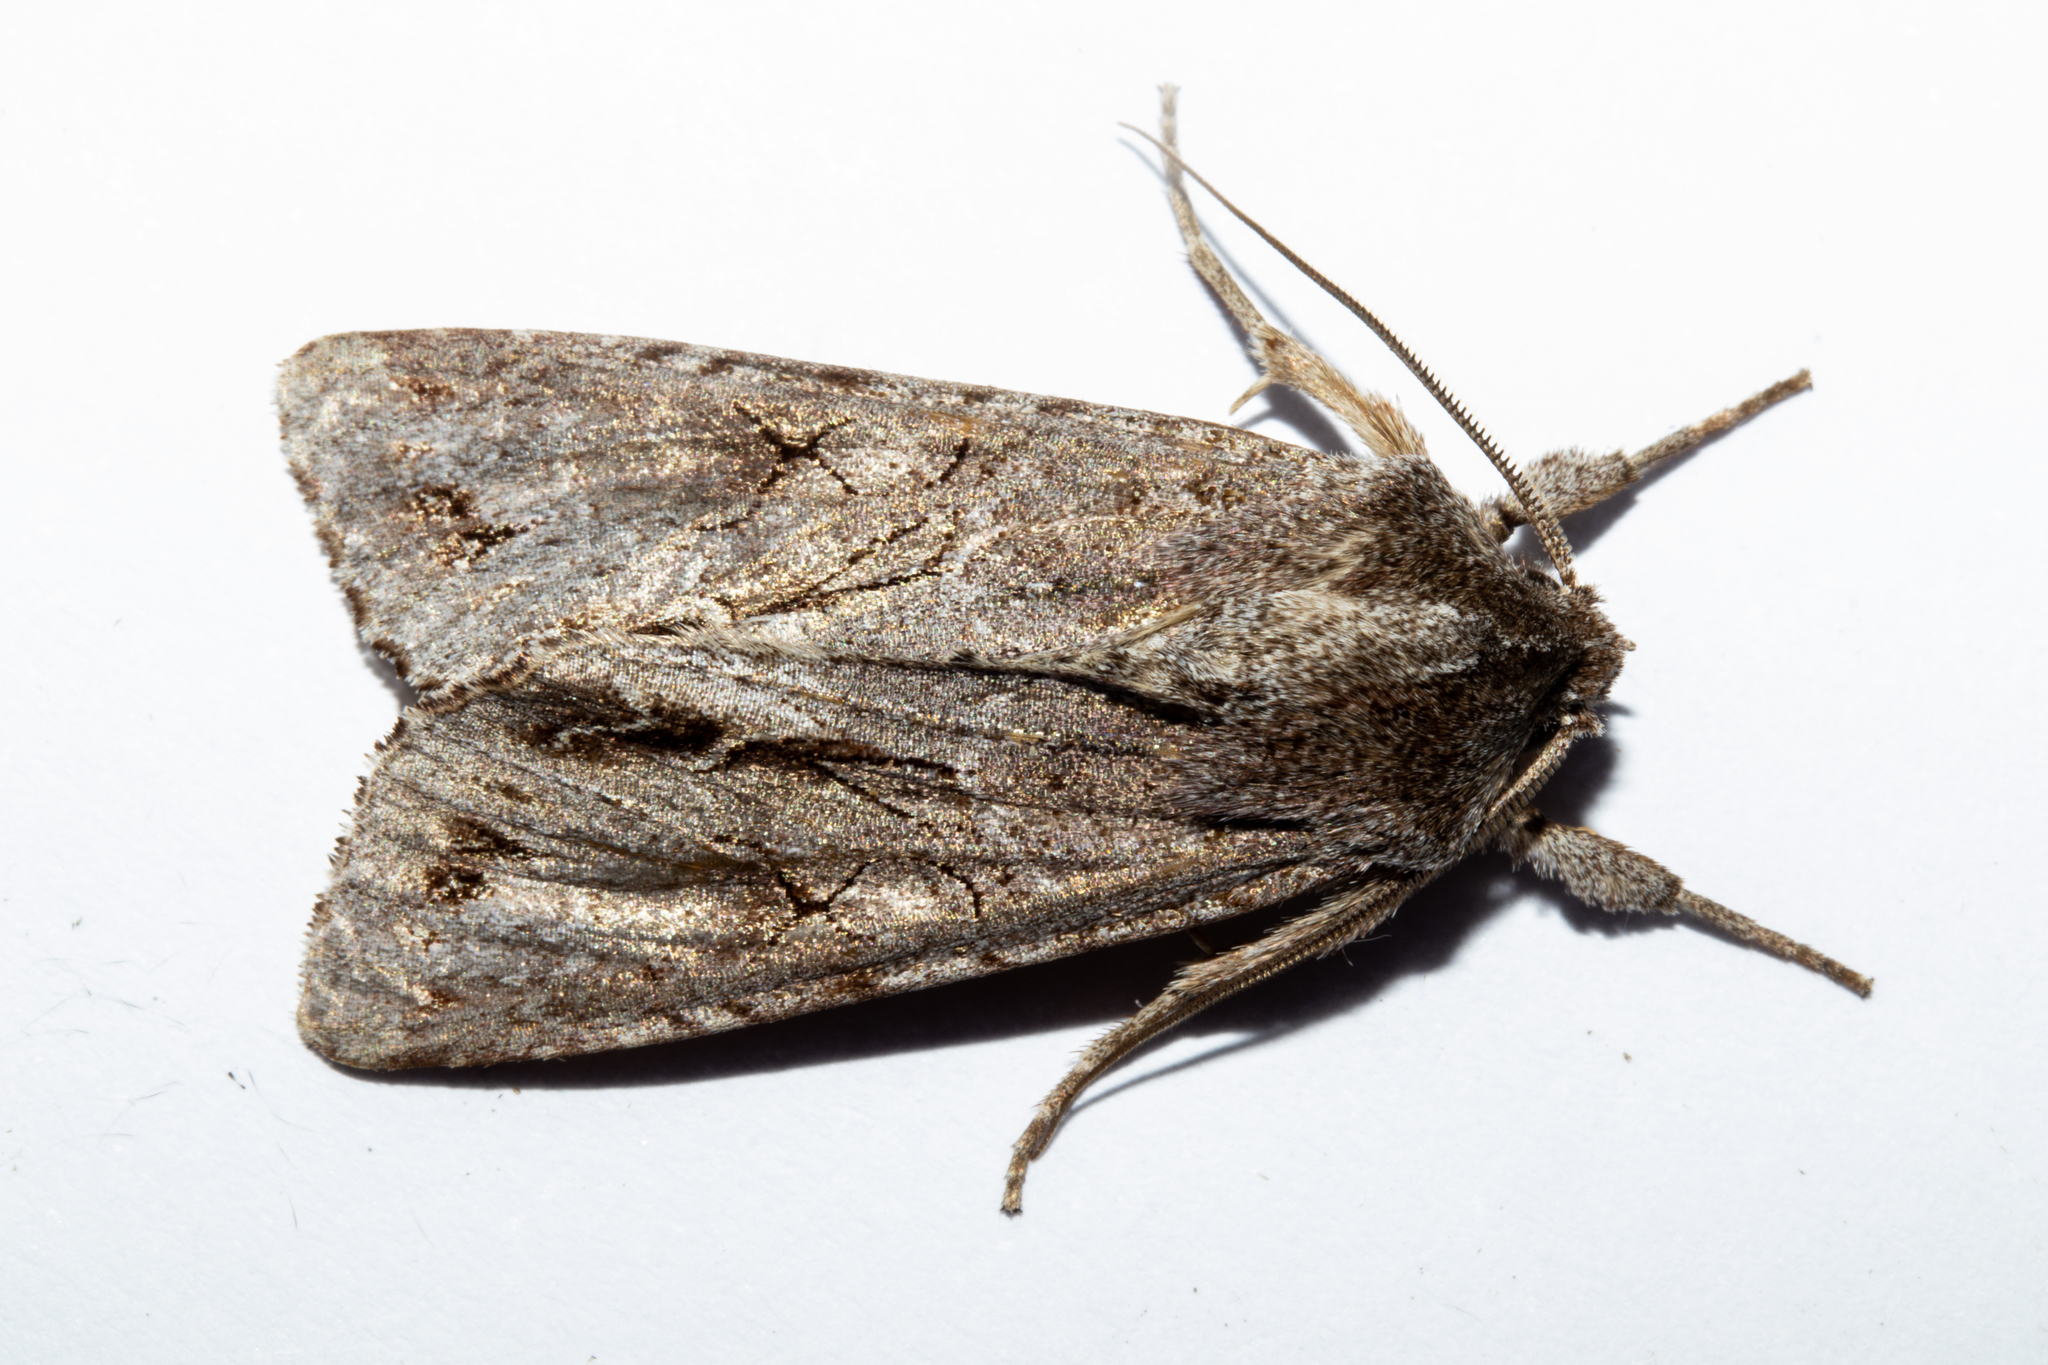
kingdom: Animalia
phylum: Arthropoda
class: Insecta
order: Lepidoptera
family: Noctuidae
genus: Ichneutica
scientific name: Ichneutica
